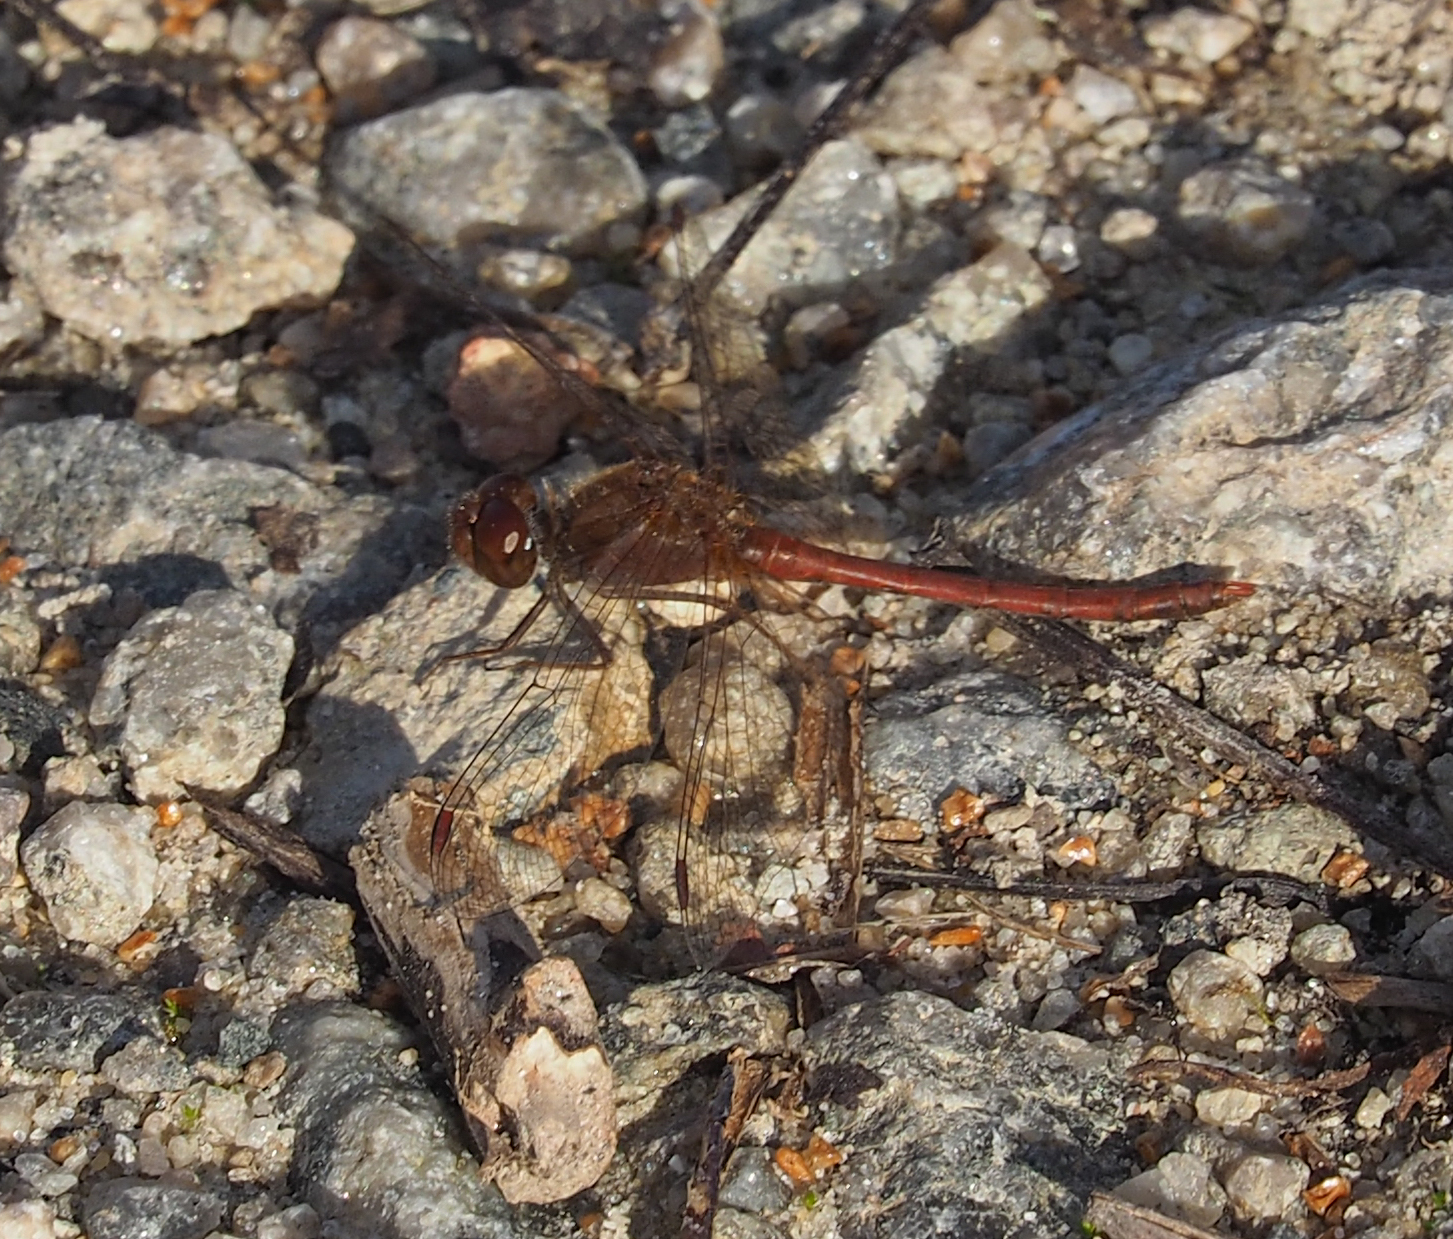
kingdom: Animalia
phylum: Arthropoda
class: Insecta
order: Odonata
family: Libellulidae
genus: Sympetrum
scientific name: Sympetrum vicinum
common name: Autumn meadowhawk
